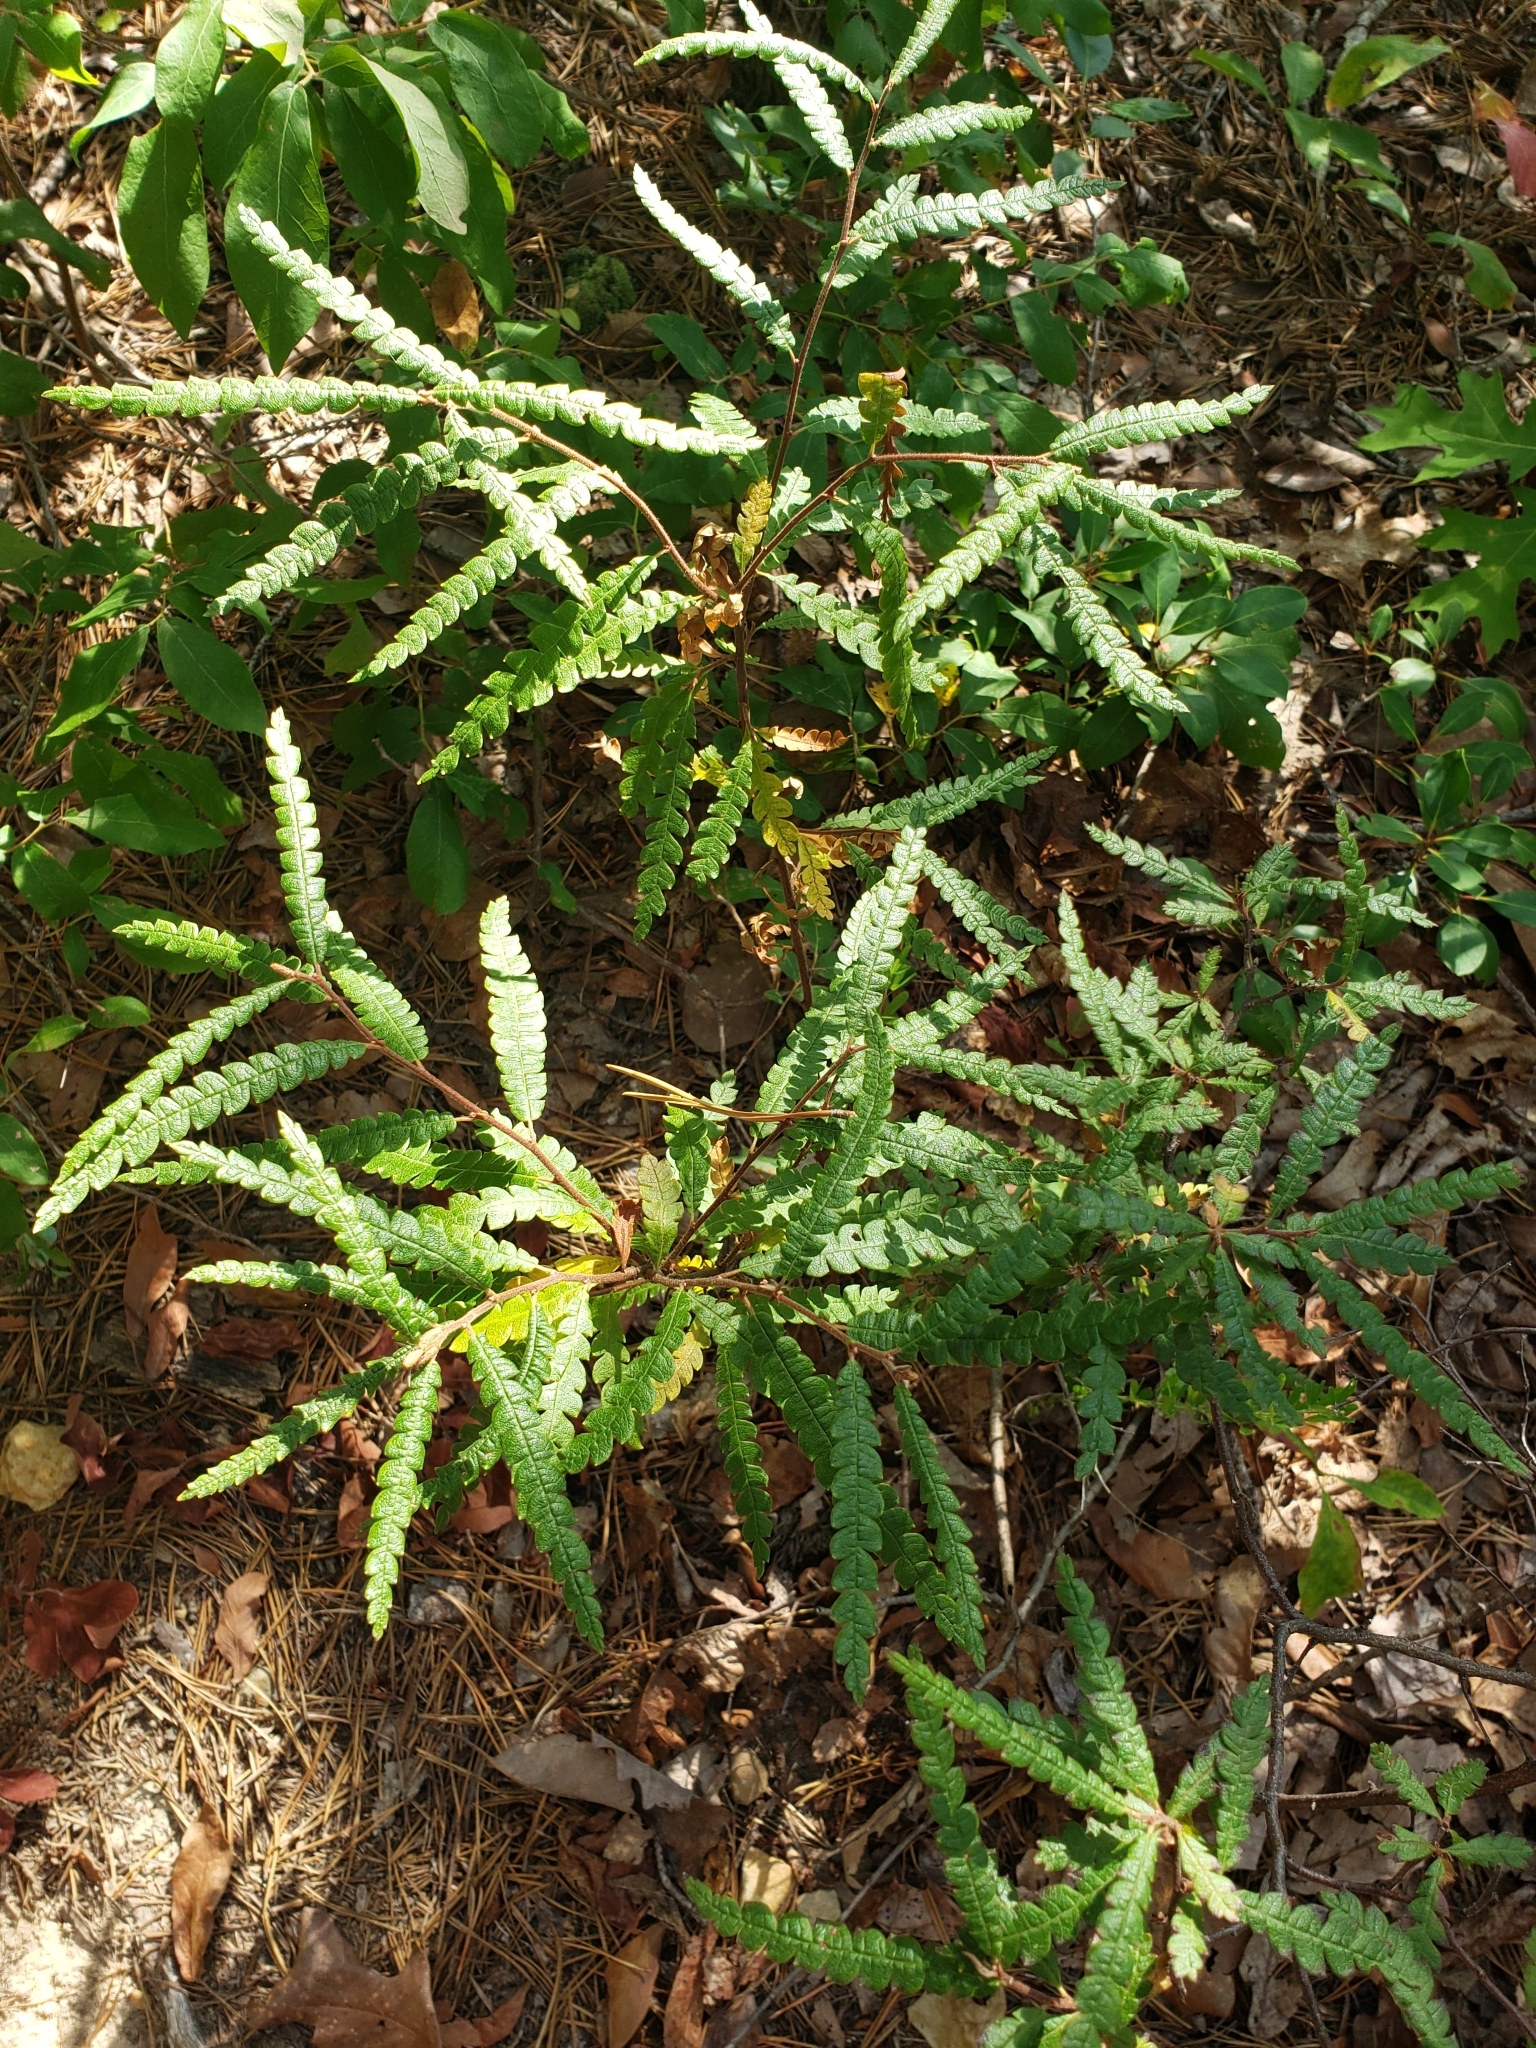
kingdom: Plantae
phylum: Tracheophyta
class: Magnoliopsida
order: Fagales
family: Myricaceae
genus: Comptonia
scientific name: Comptonia peregrina
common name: Sweet-fern
